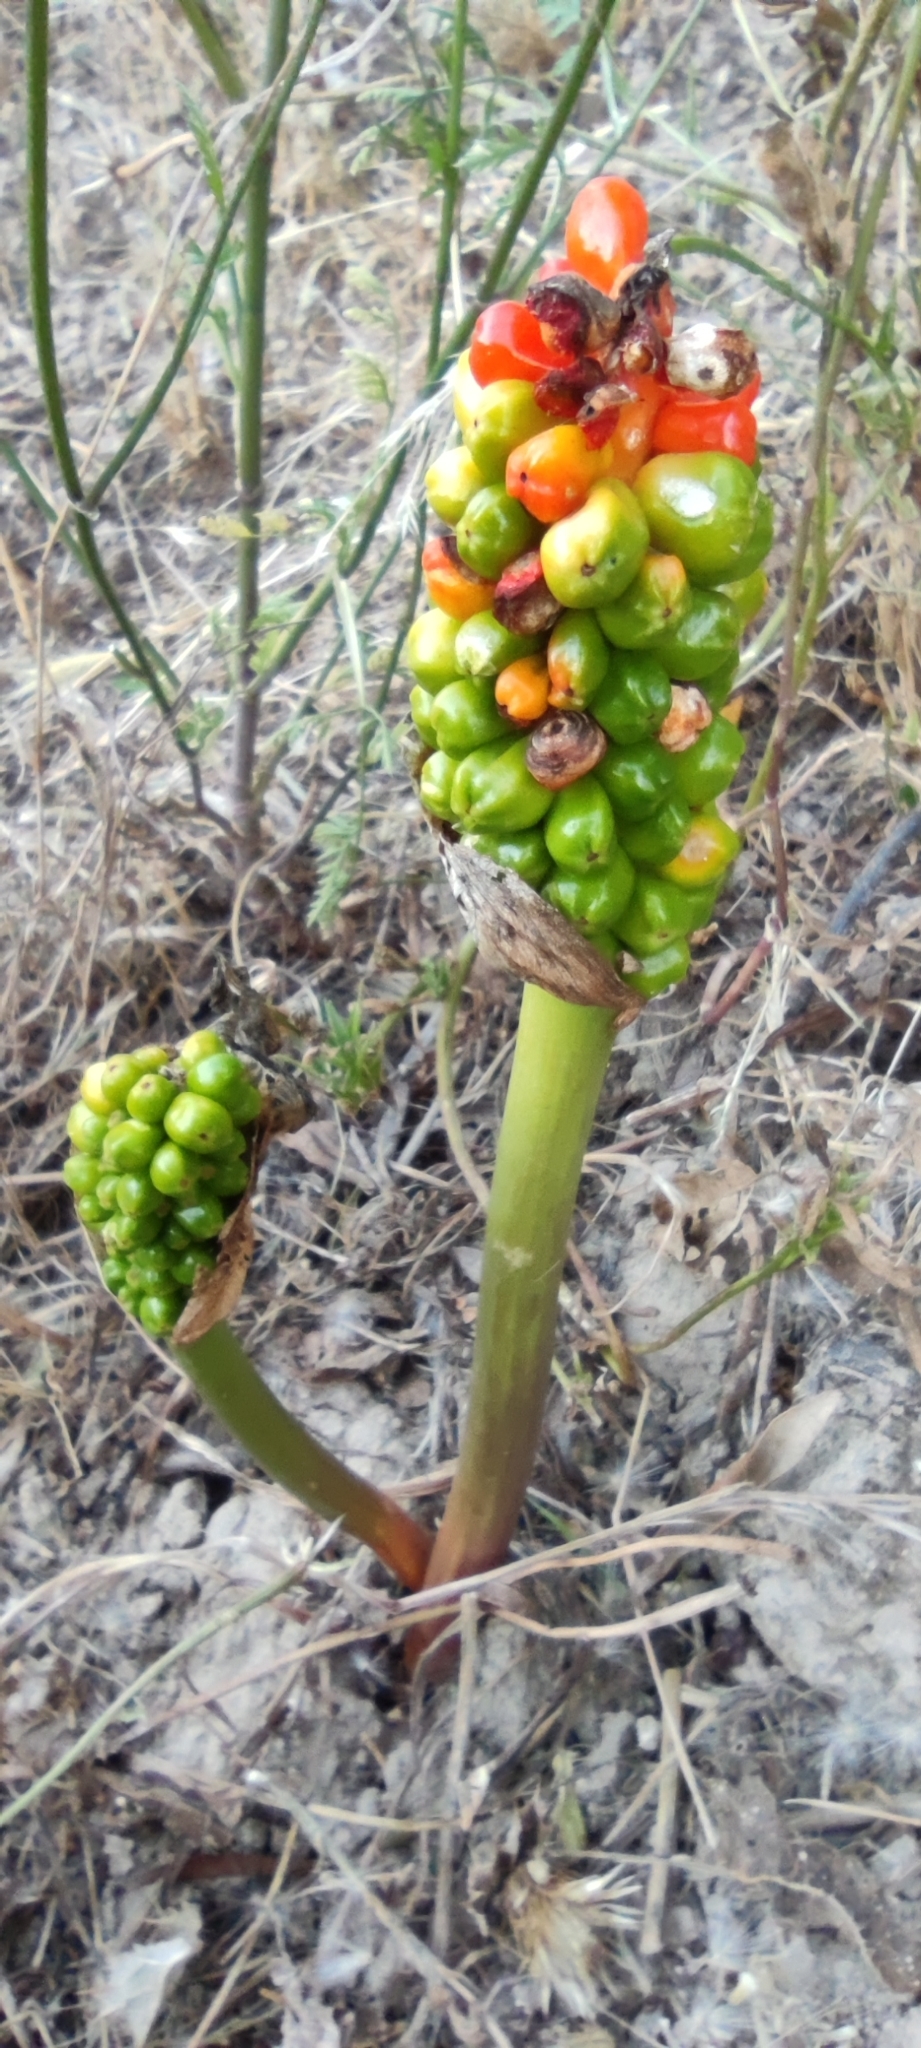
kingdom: Plantae
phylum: Tracheophyta
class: Liliopsida
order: Alismatales
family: Araceae
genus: Arum
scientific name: Arum italicum
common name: Italian lords-and-ladies
